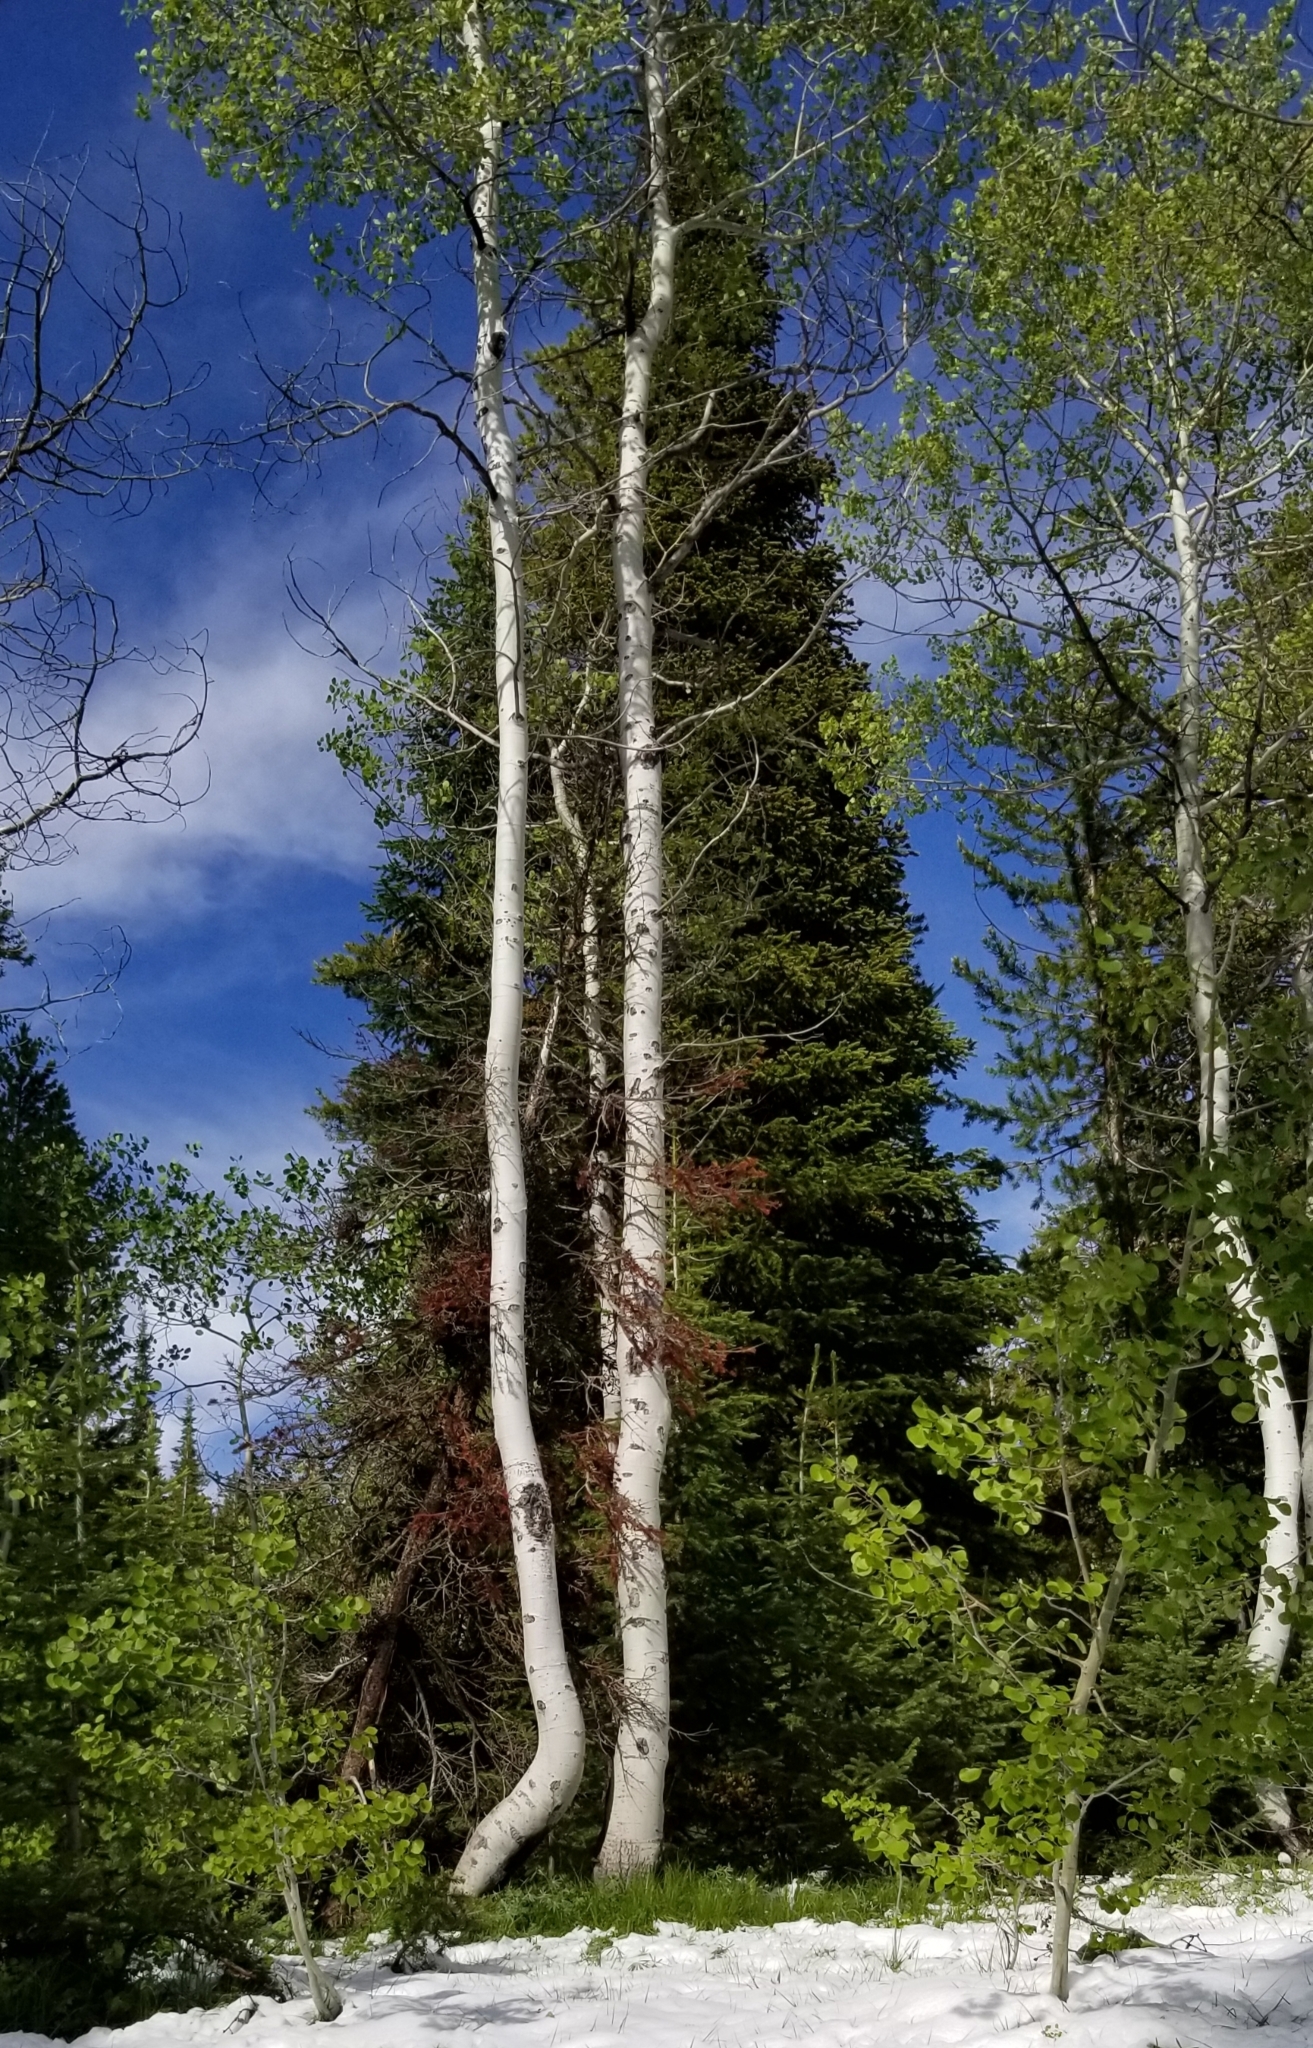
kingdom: Plantae
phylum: Tracheophyta
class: Magnoliopsida
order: Malpighiales
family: Salicaceae
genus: Populus
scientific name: Populus tremuloides
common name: Quaking aspen
